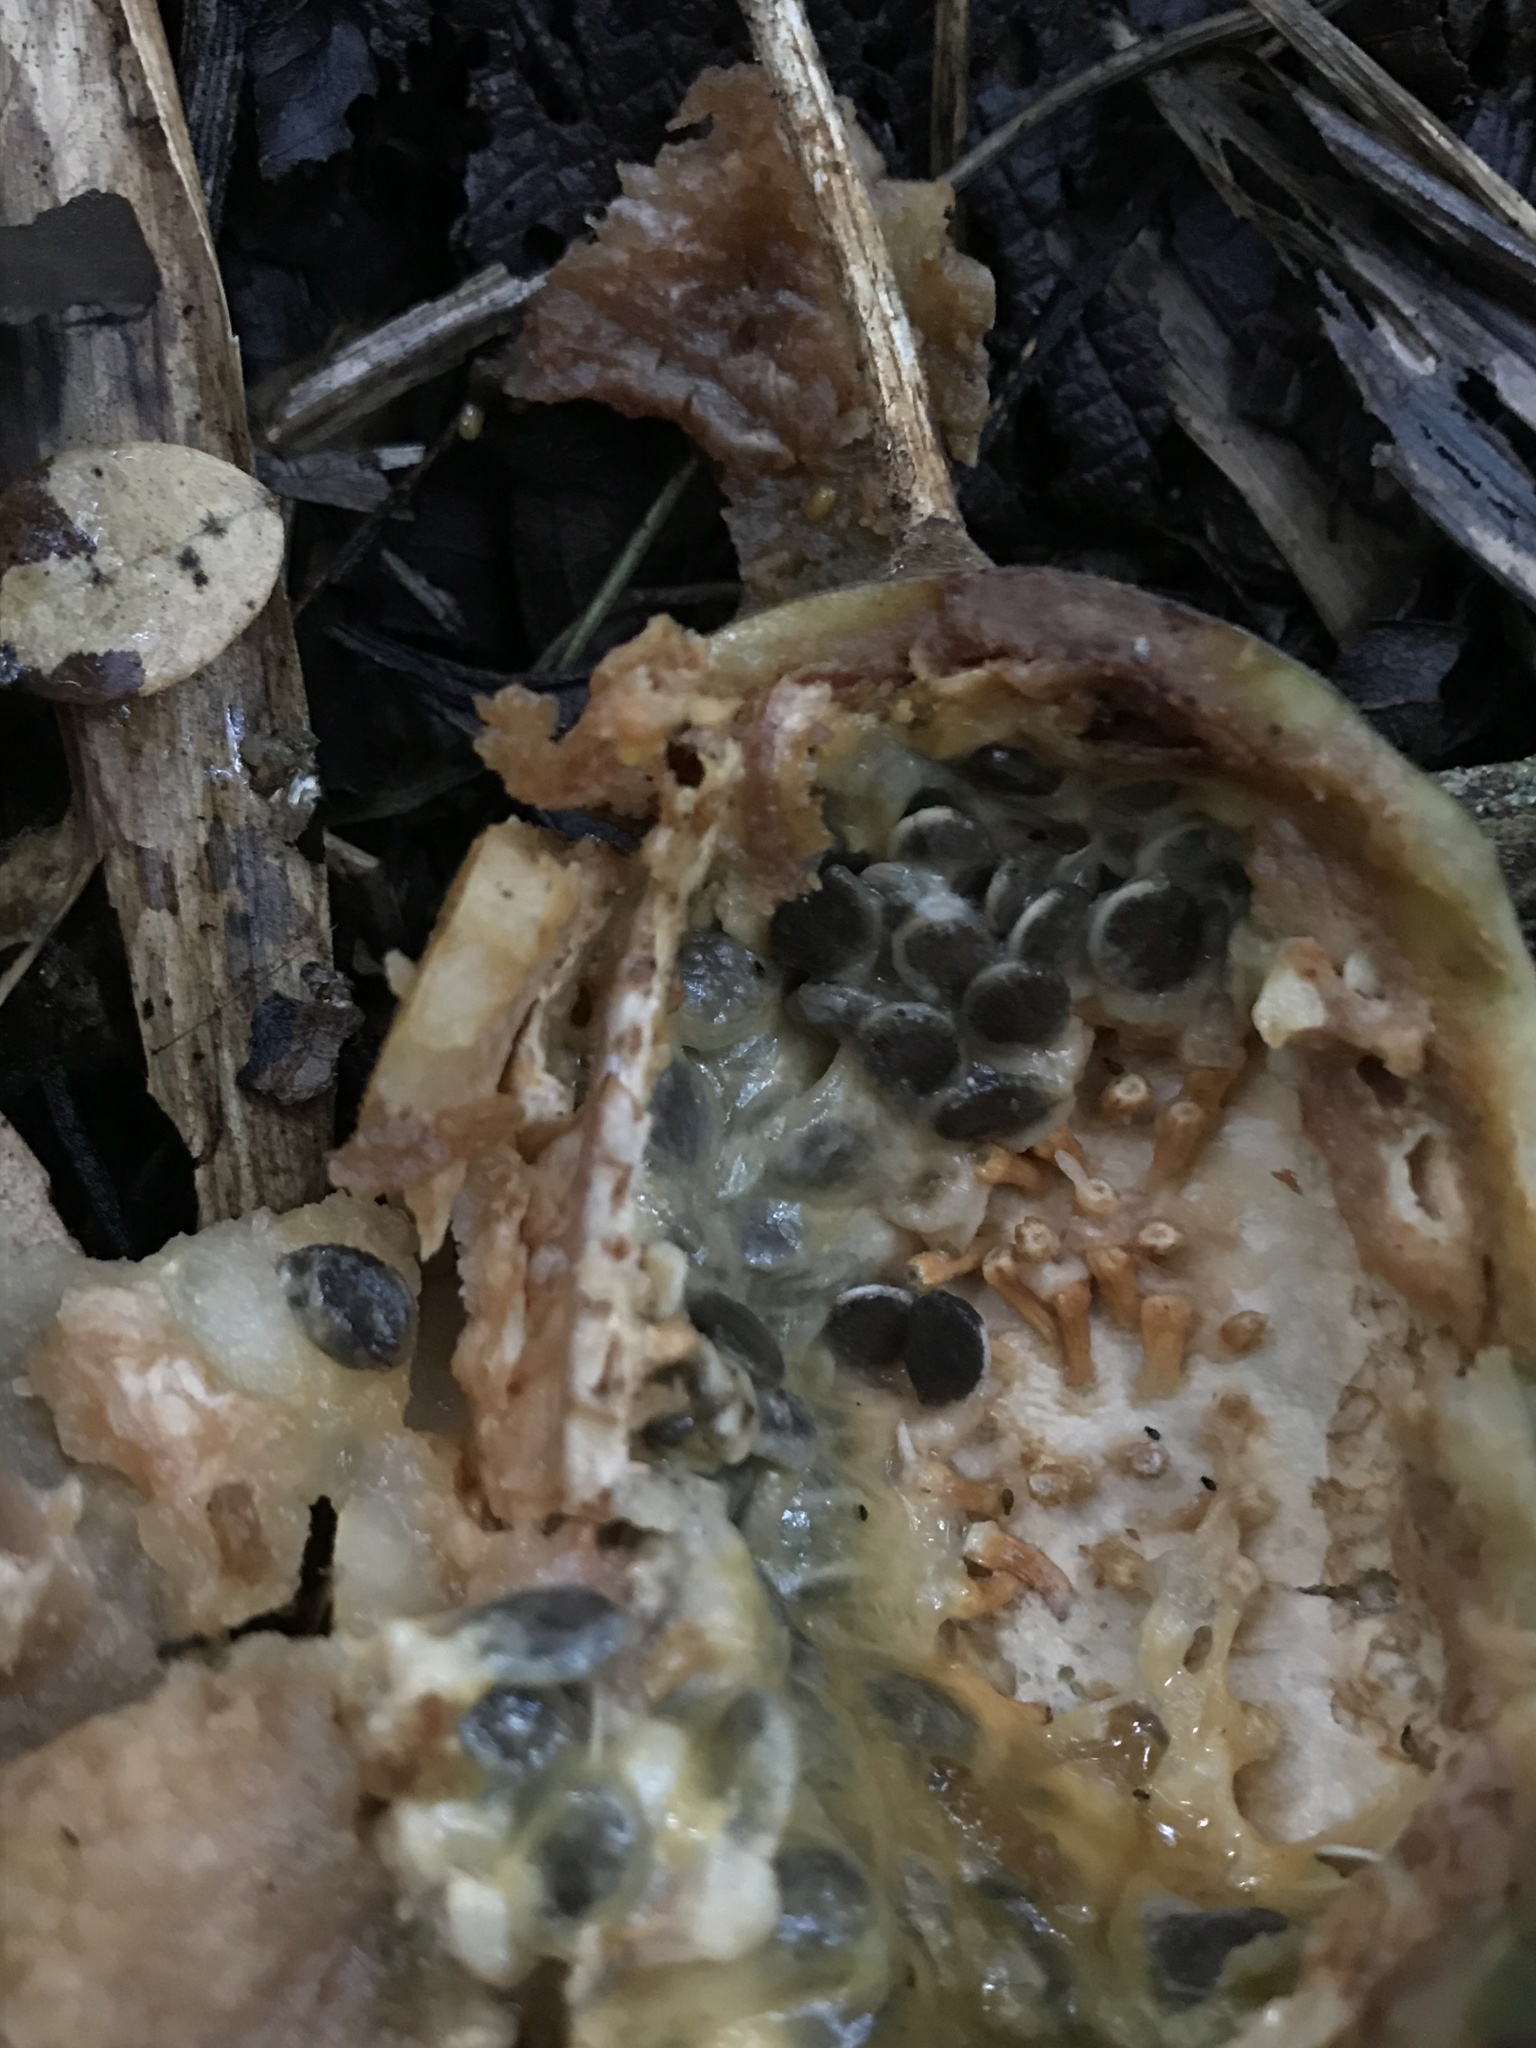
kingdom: Plantae
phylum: Tracheophyta
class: Magnoliopsida
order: Malpighiales
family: Passifloraceae
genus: Passiflora
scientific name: Passiflora vitifolia
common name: Perfumed passionflower
